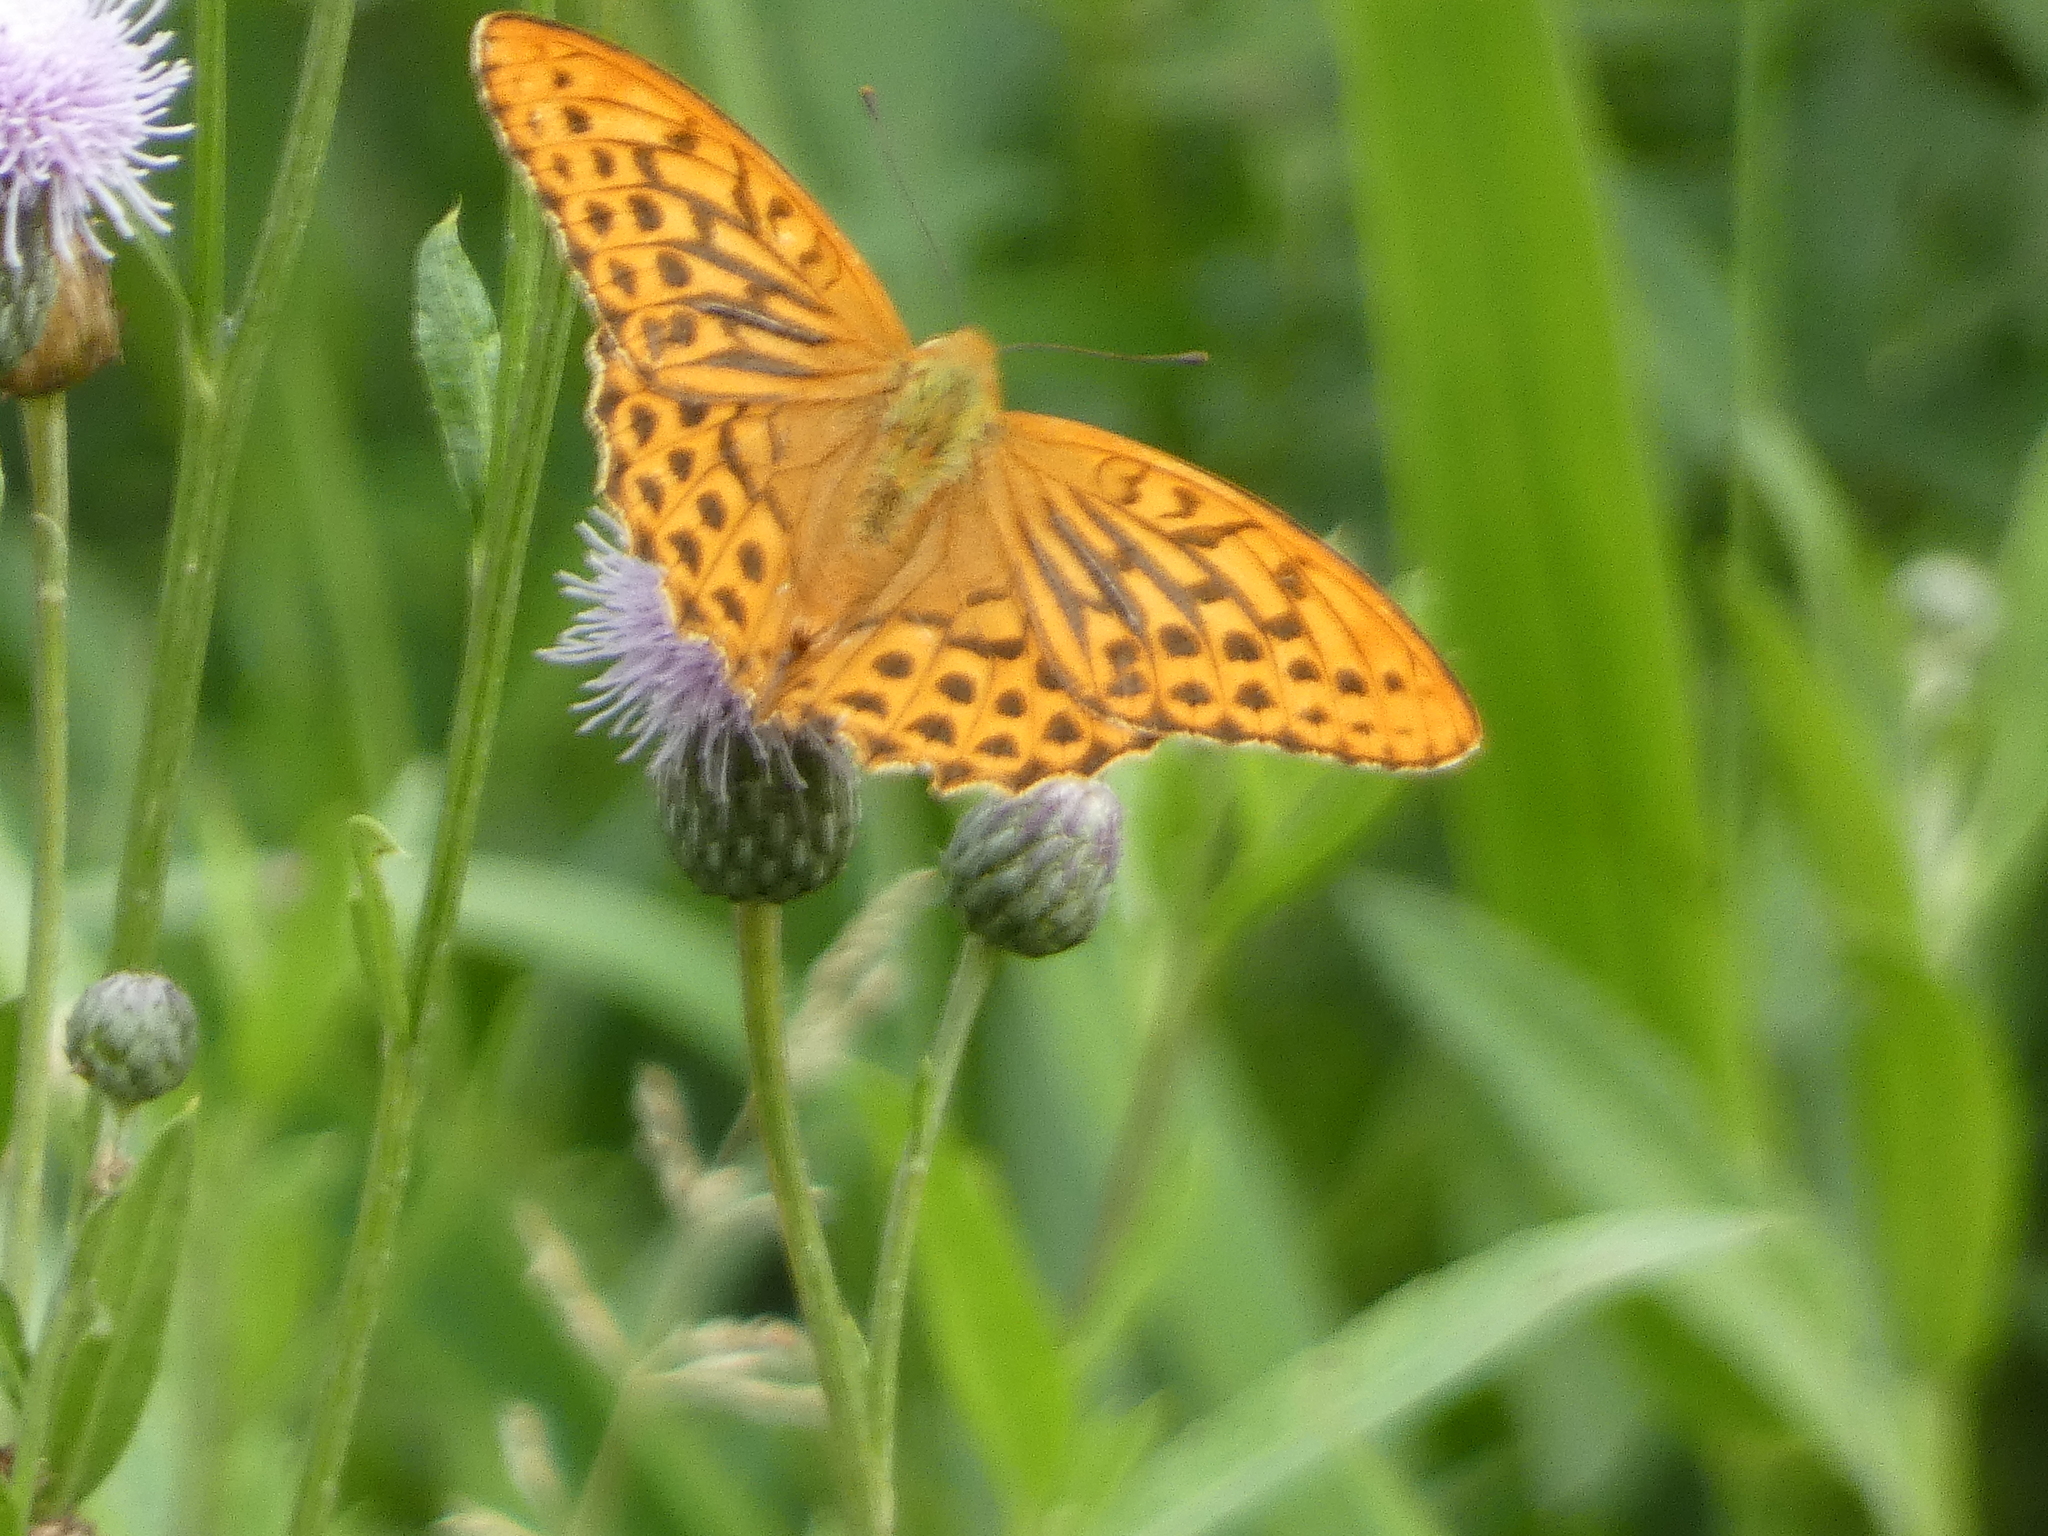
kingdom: Animalia
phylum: Arthropoda
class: Insecta
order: Lepidoptera
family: Nymphalidae
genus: Argynnis
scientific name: Argynnis paphia
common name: Silver-washed fritillary
